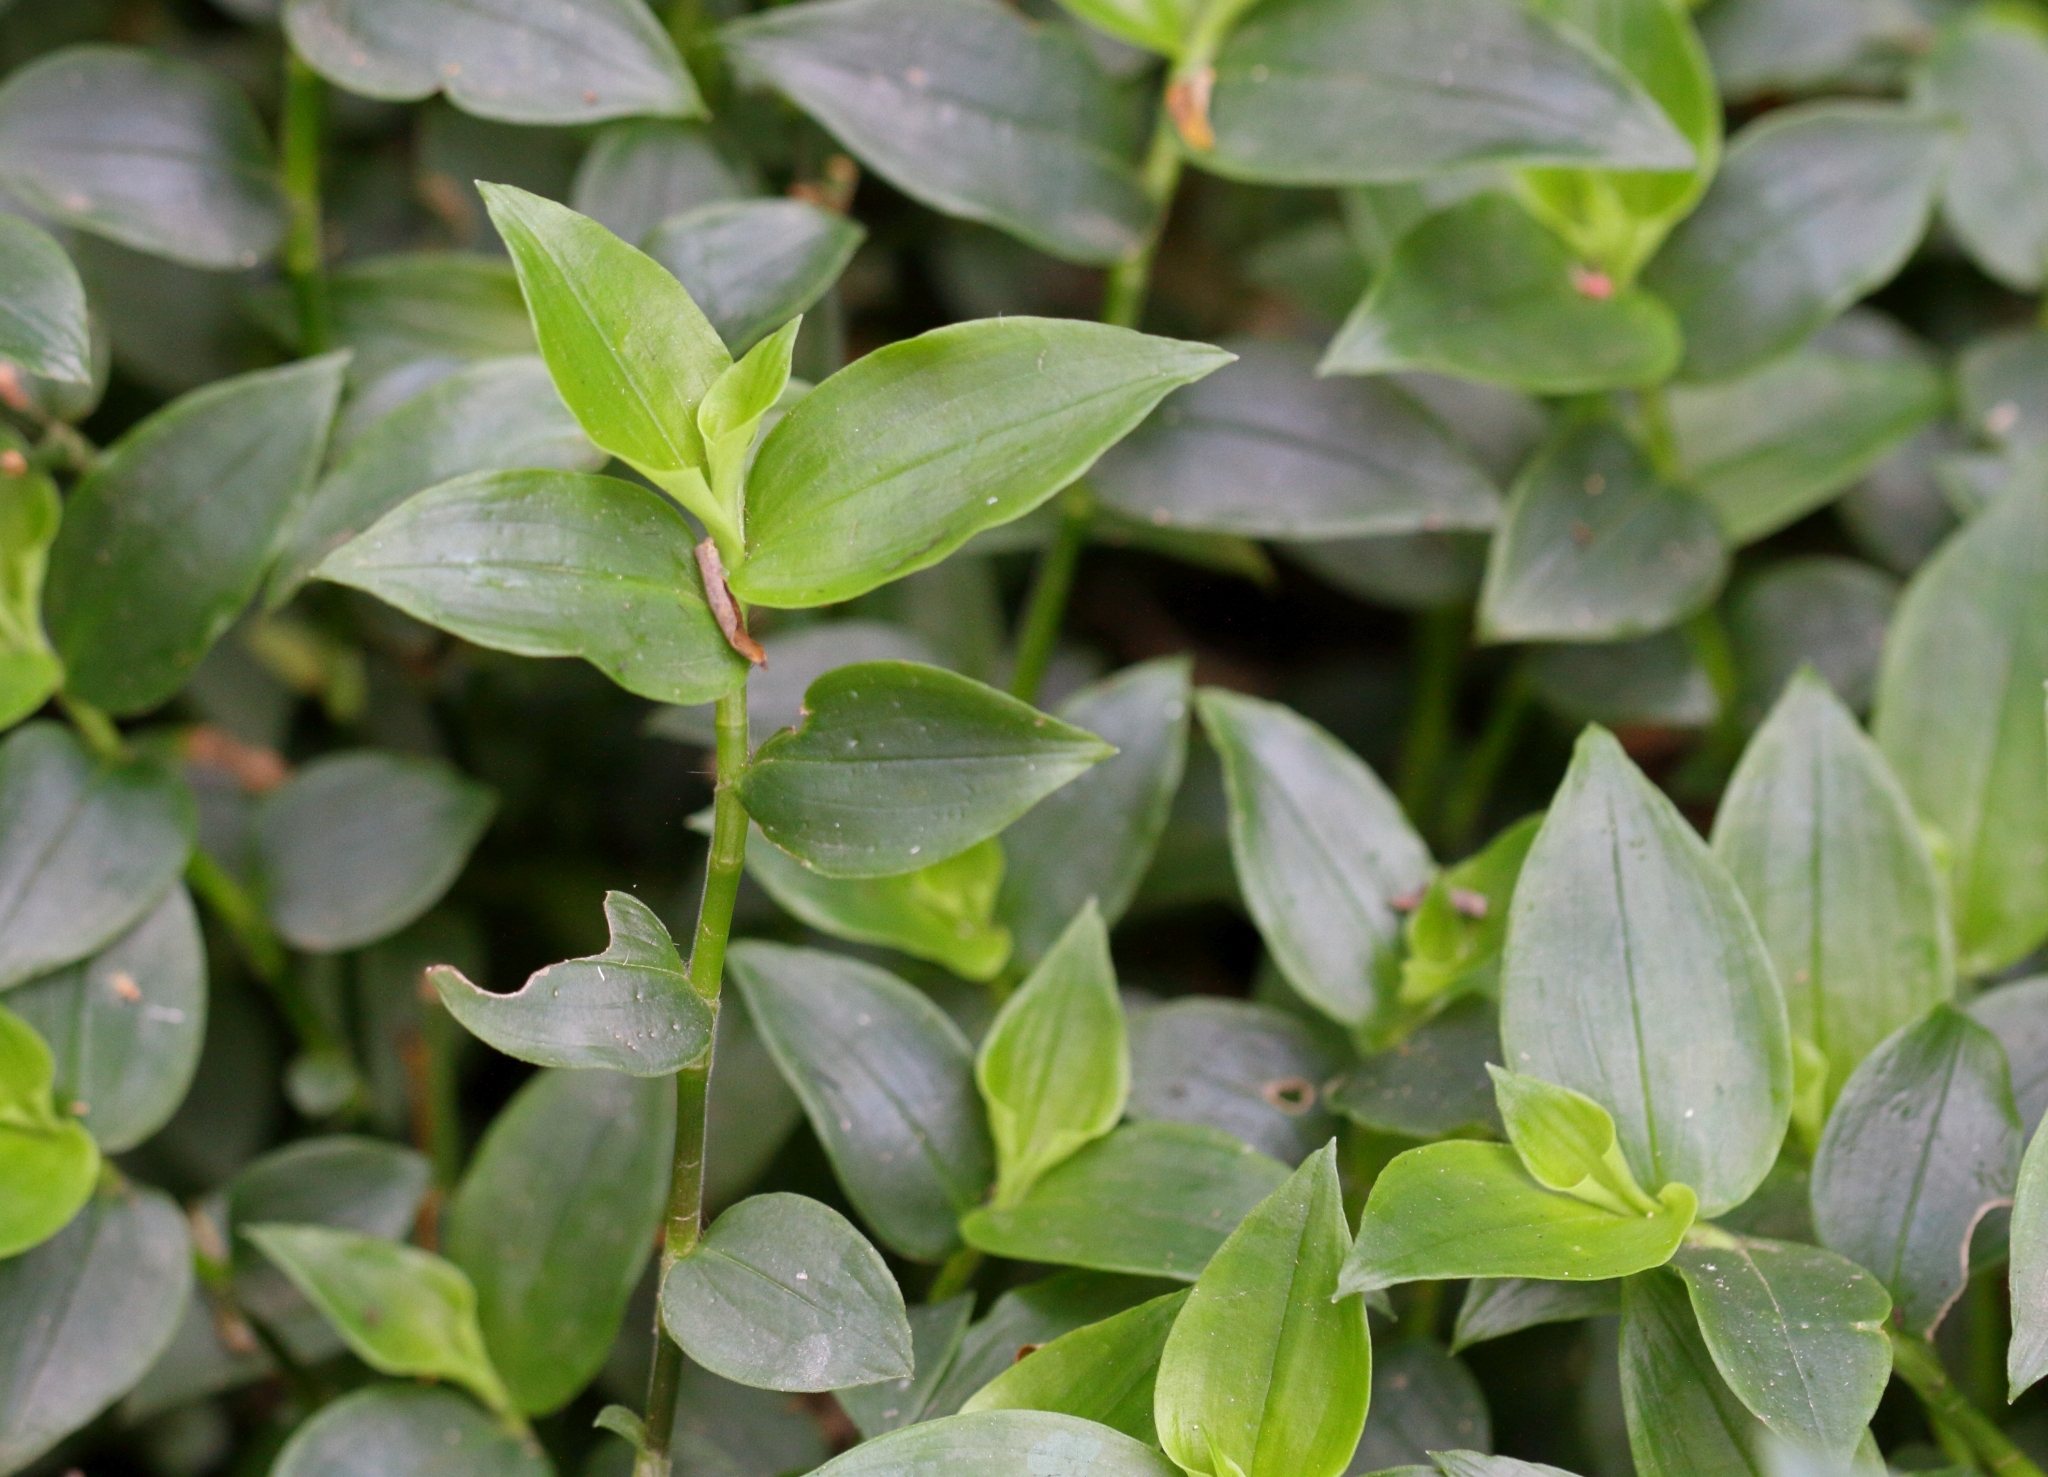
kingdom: Plantae
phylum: Tracheophyta
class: Liliopsida
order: Commelinales
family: Commelinaceae
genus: Tradescantia
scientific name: Tradescantia fluminensis
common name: Wandering-jew
